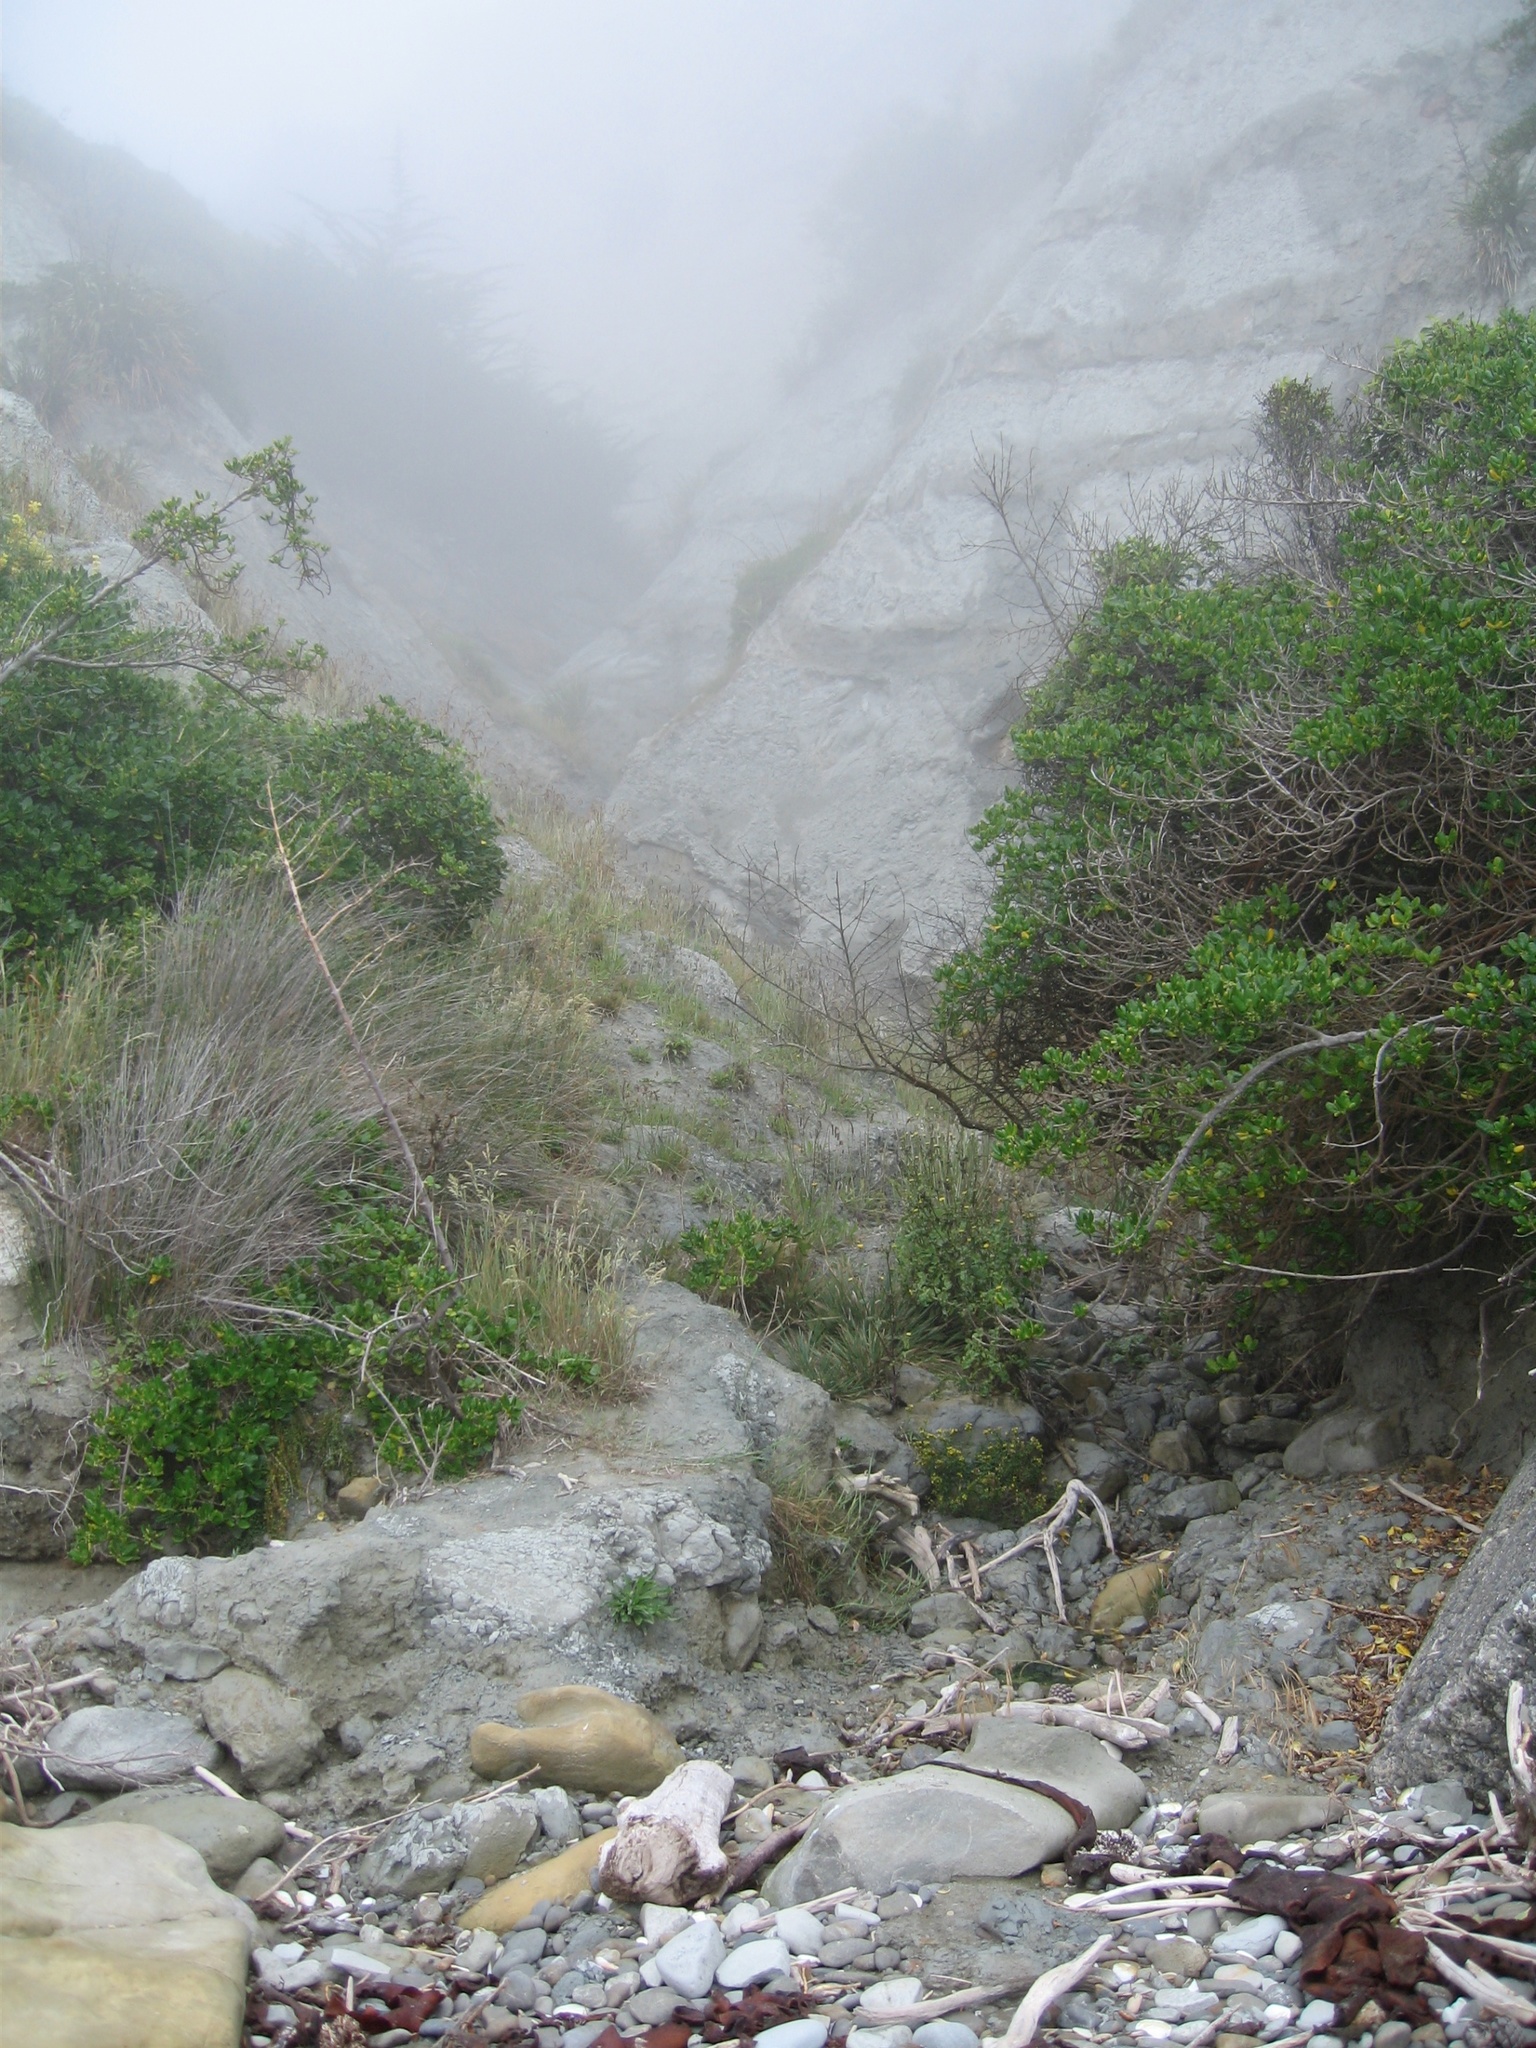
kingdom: Plantae
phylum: Tracheophyta
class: Magnoliopsida
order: Gentianales
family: Rubiaceae
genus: Coprosma
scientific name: Coprosma repens
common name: Tree bedstraw
